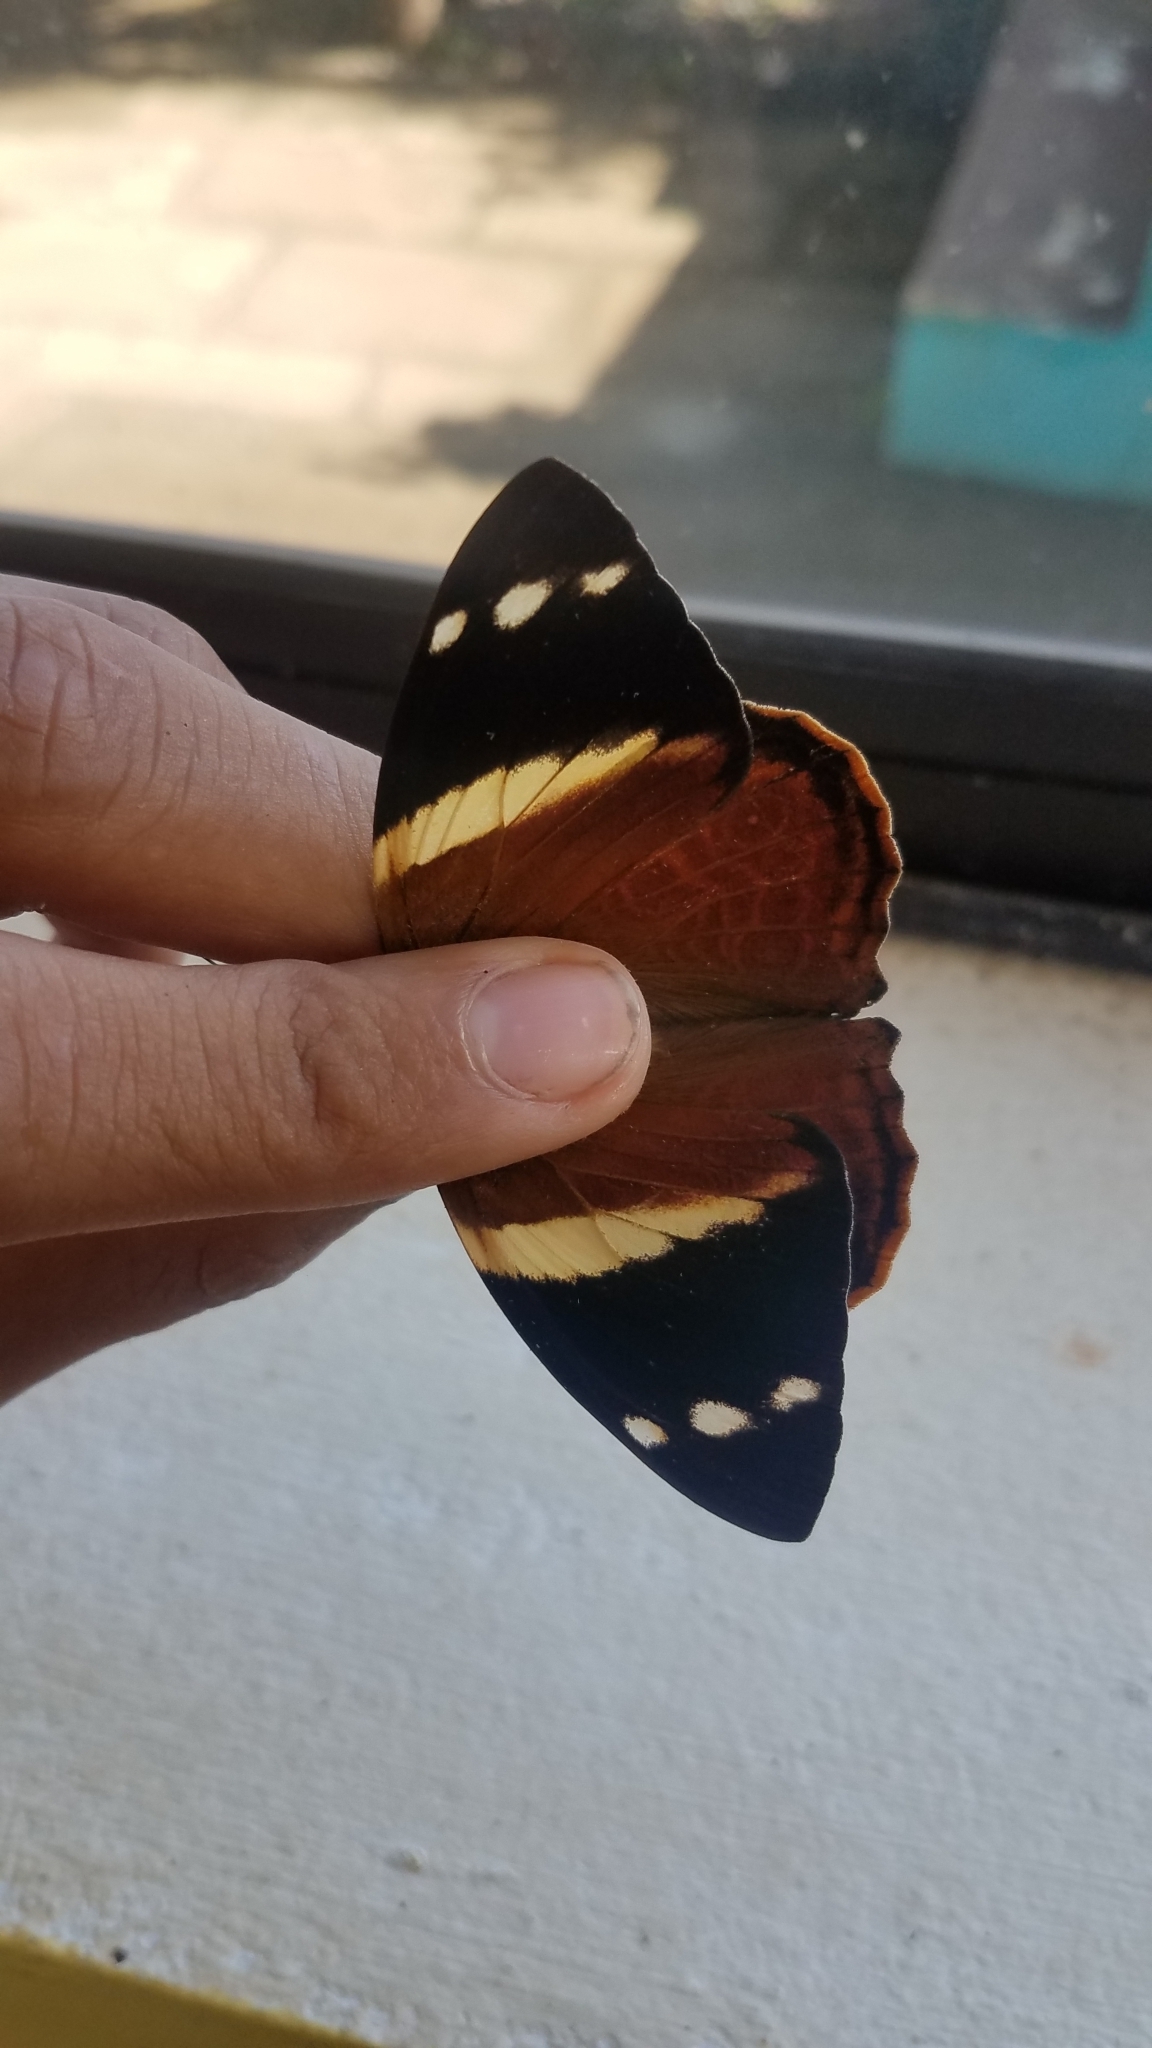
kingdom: Animalia
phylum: Arthropoda
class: Insecta
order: Lepidoptera
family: Nymphalidae
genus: Smyrna
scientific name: Smyrna blomfildia
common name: Blomfild's beauty
